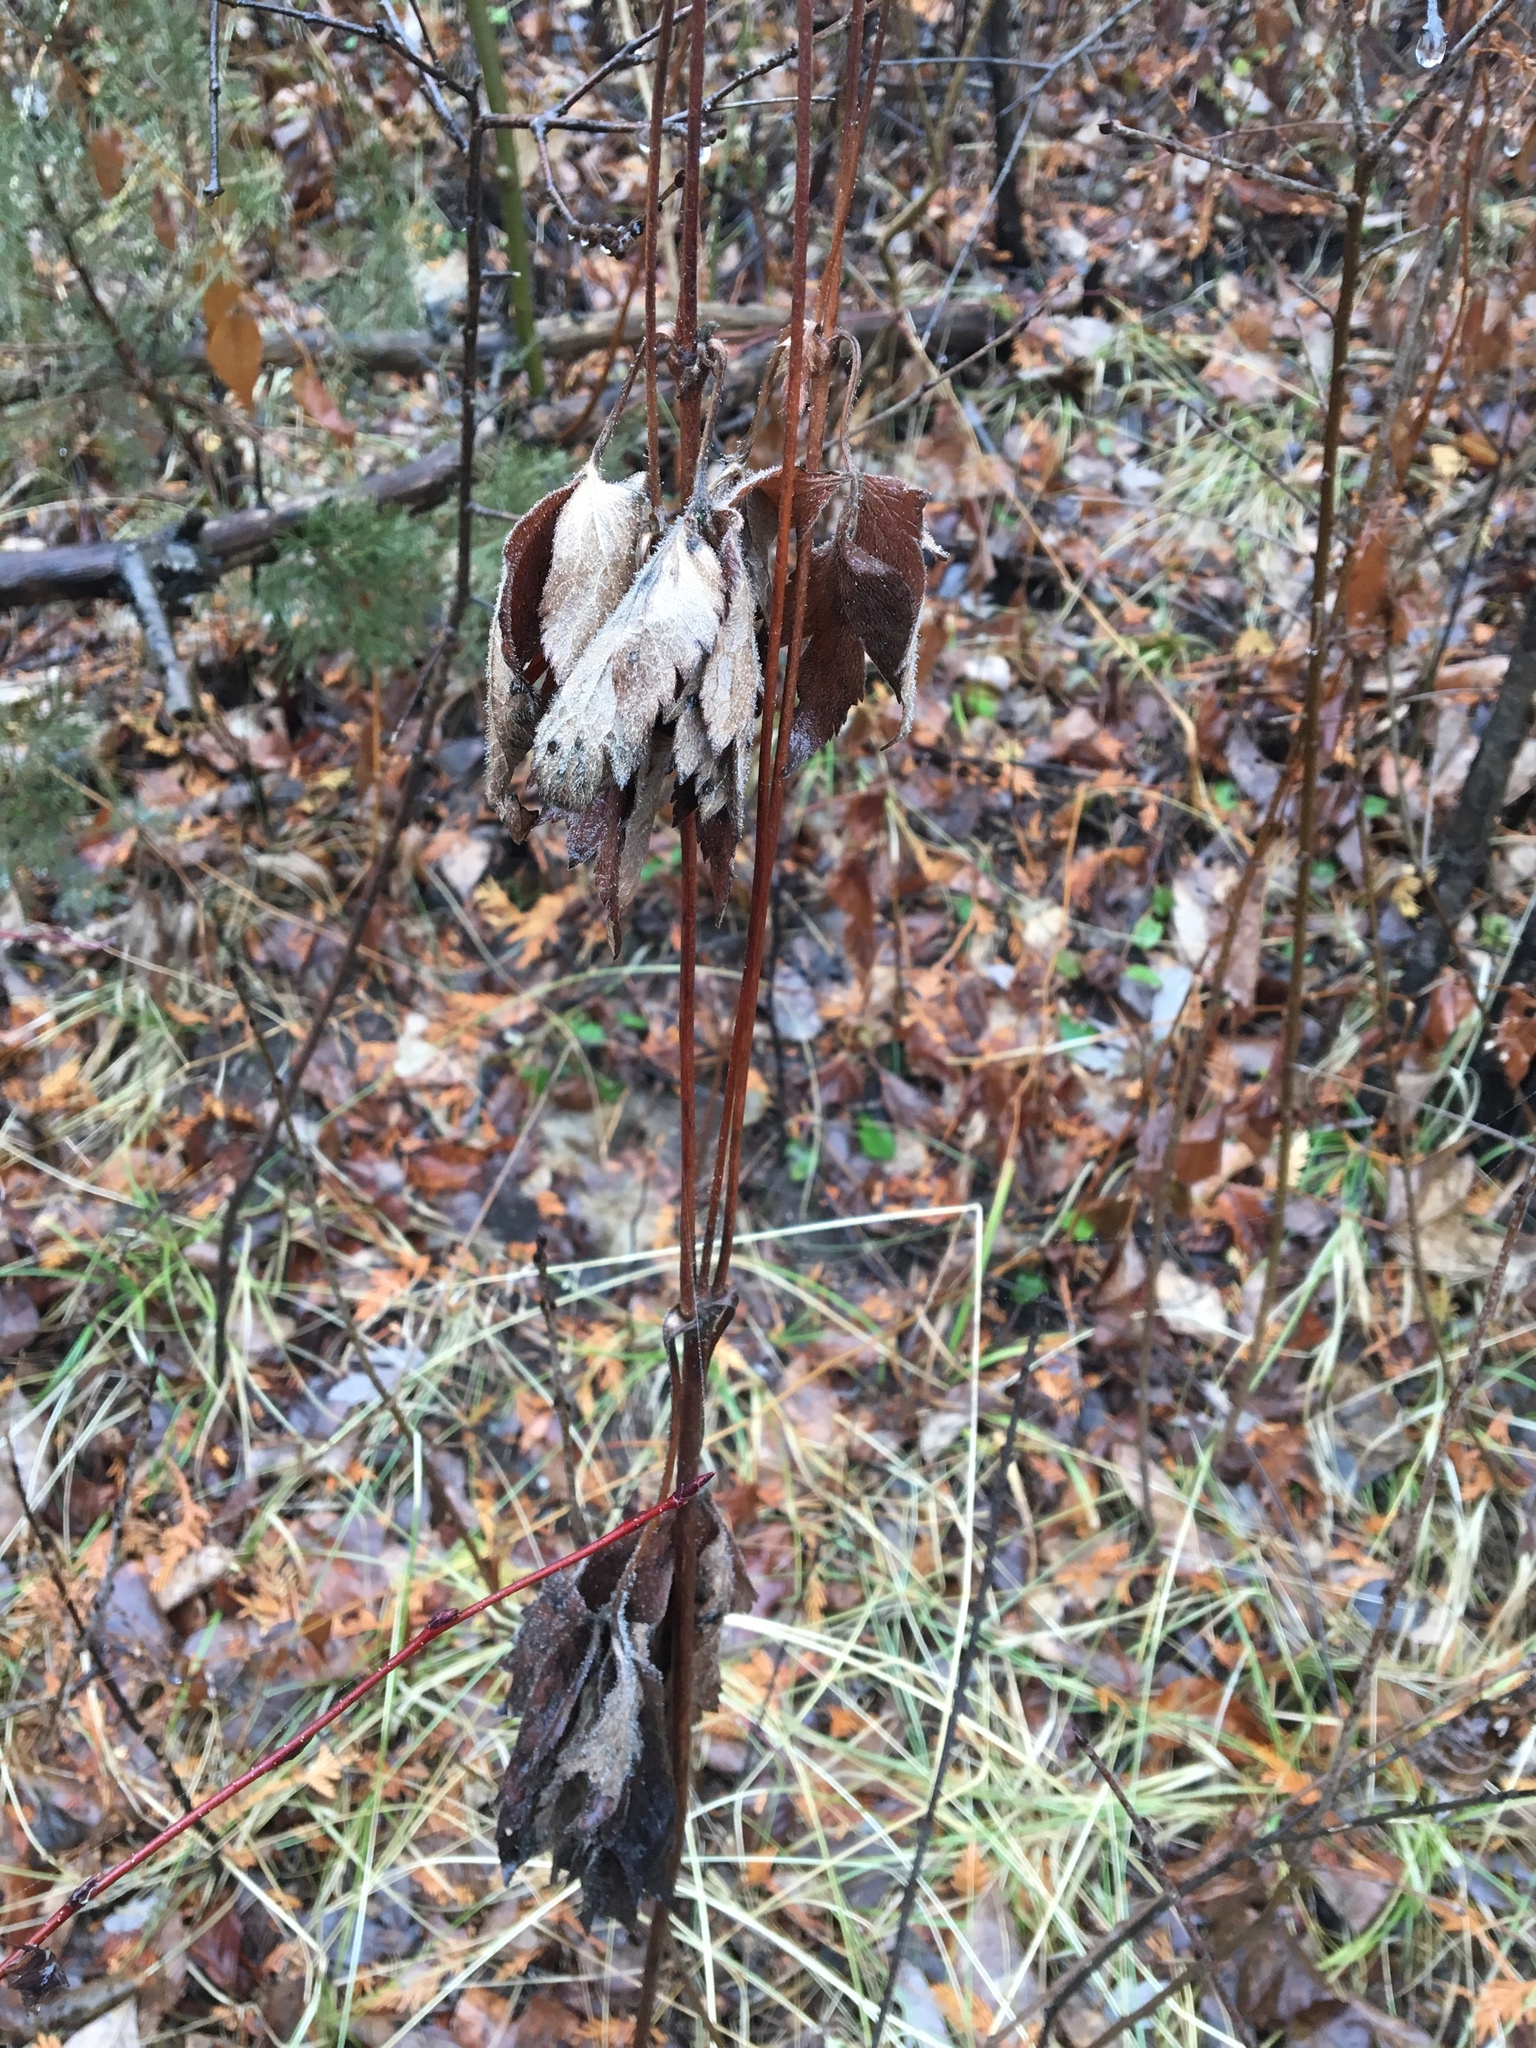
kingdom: Plantae
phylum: Tracheophyta
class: Magnoliopsida
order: Ranunculales
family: Ranunculaceae
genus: Anemone
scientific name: Anemone virginiana
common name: Tall anemone
